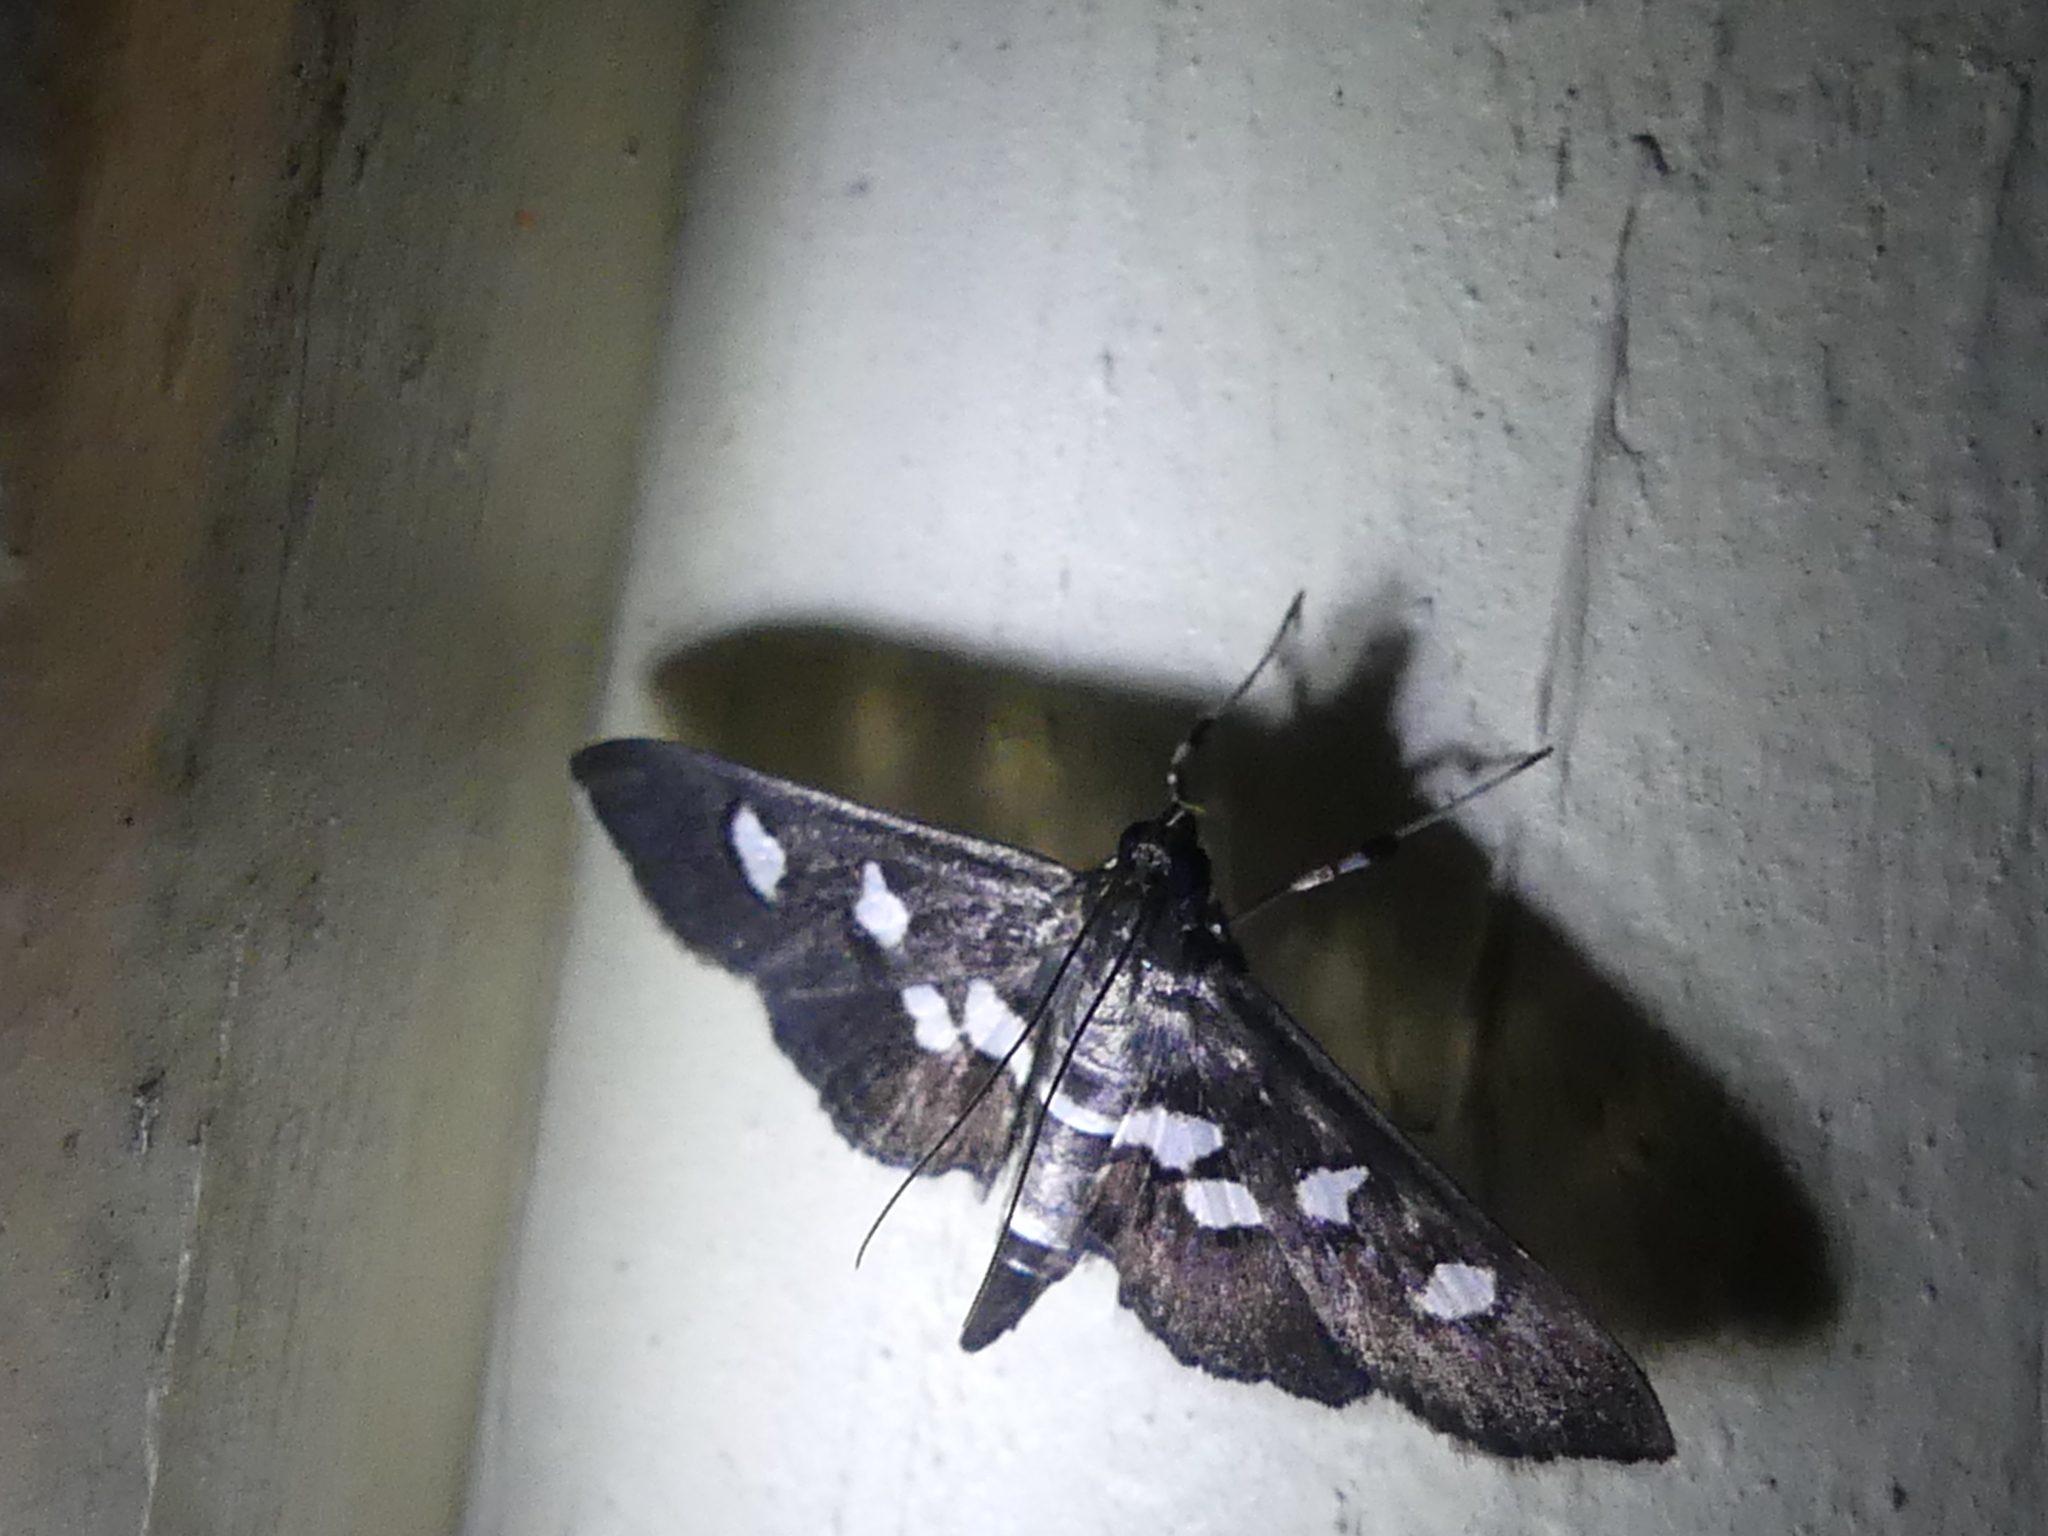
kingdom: Animalia
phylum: Arthropoda
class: Insecta
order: Lepidoptera
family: Crambidae
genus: Desmia
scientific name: Desmia funeralis
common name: Grape leaf folder moth
